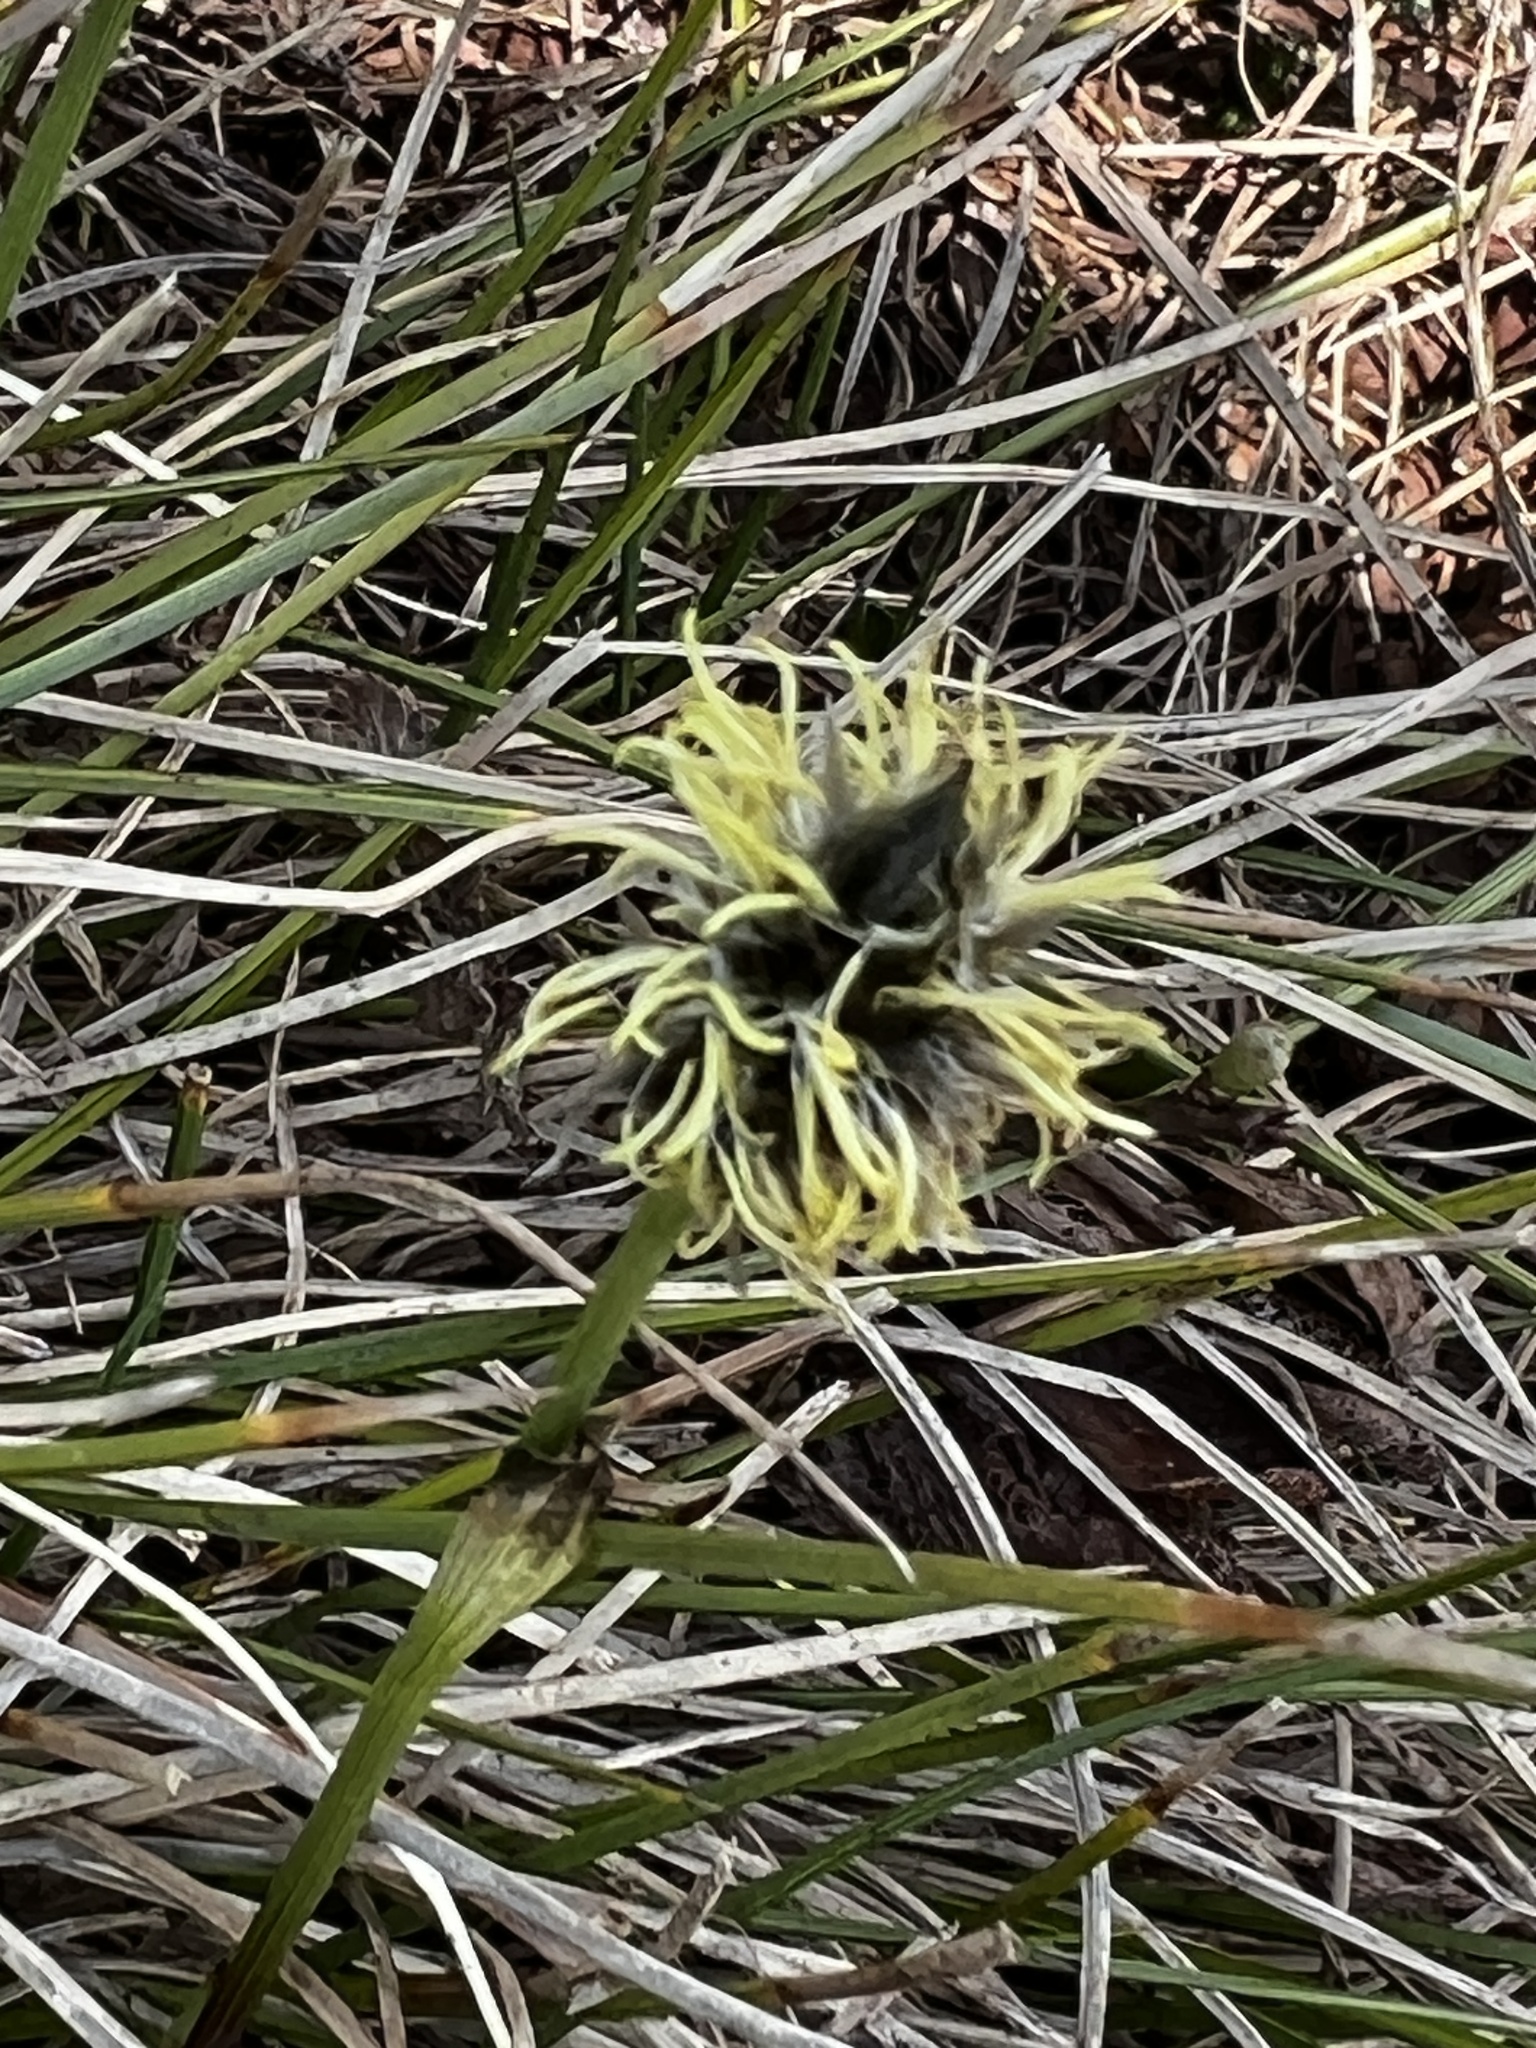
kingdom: Plantae
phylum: Tracheophyta
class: Liliopsida
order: Poales
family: Cyperaceae
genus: Eriophorum
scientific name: Eriophorum vaginatum
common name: Hare's-tail cottongrass
